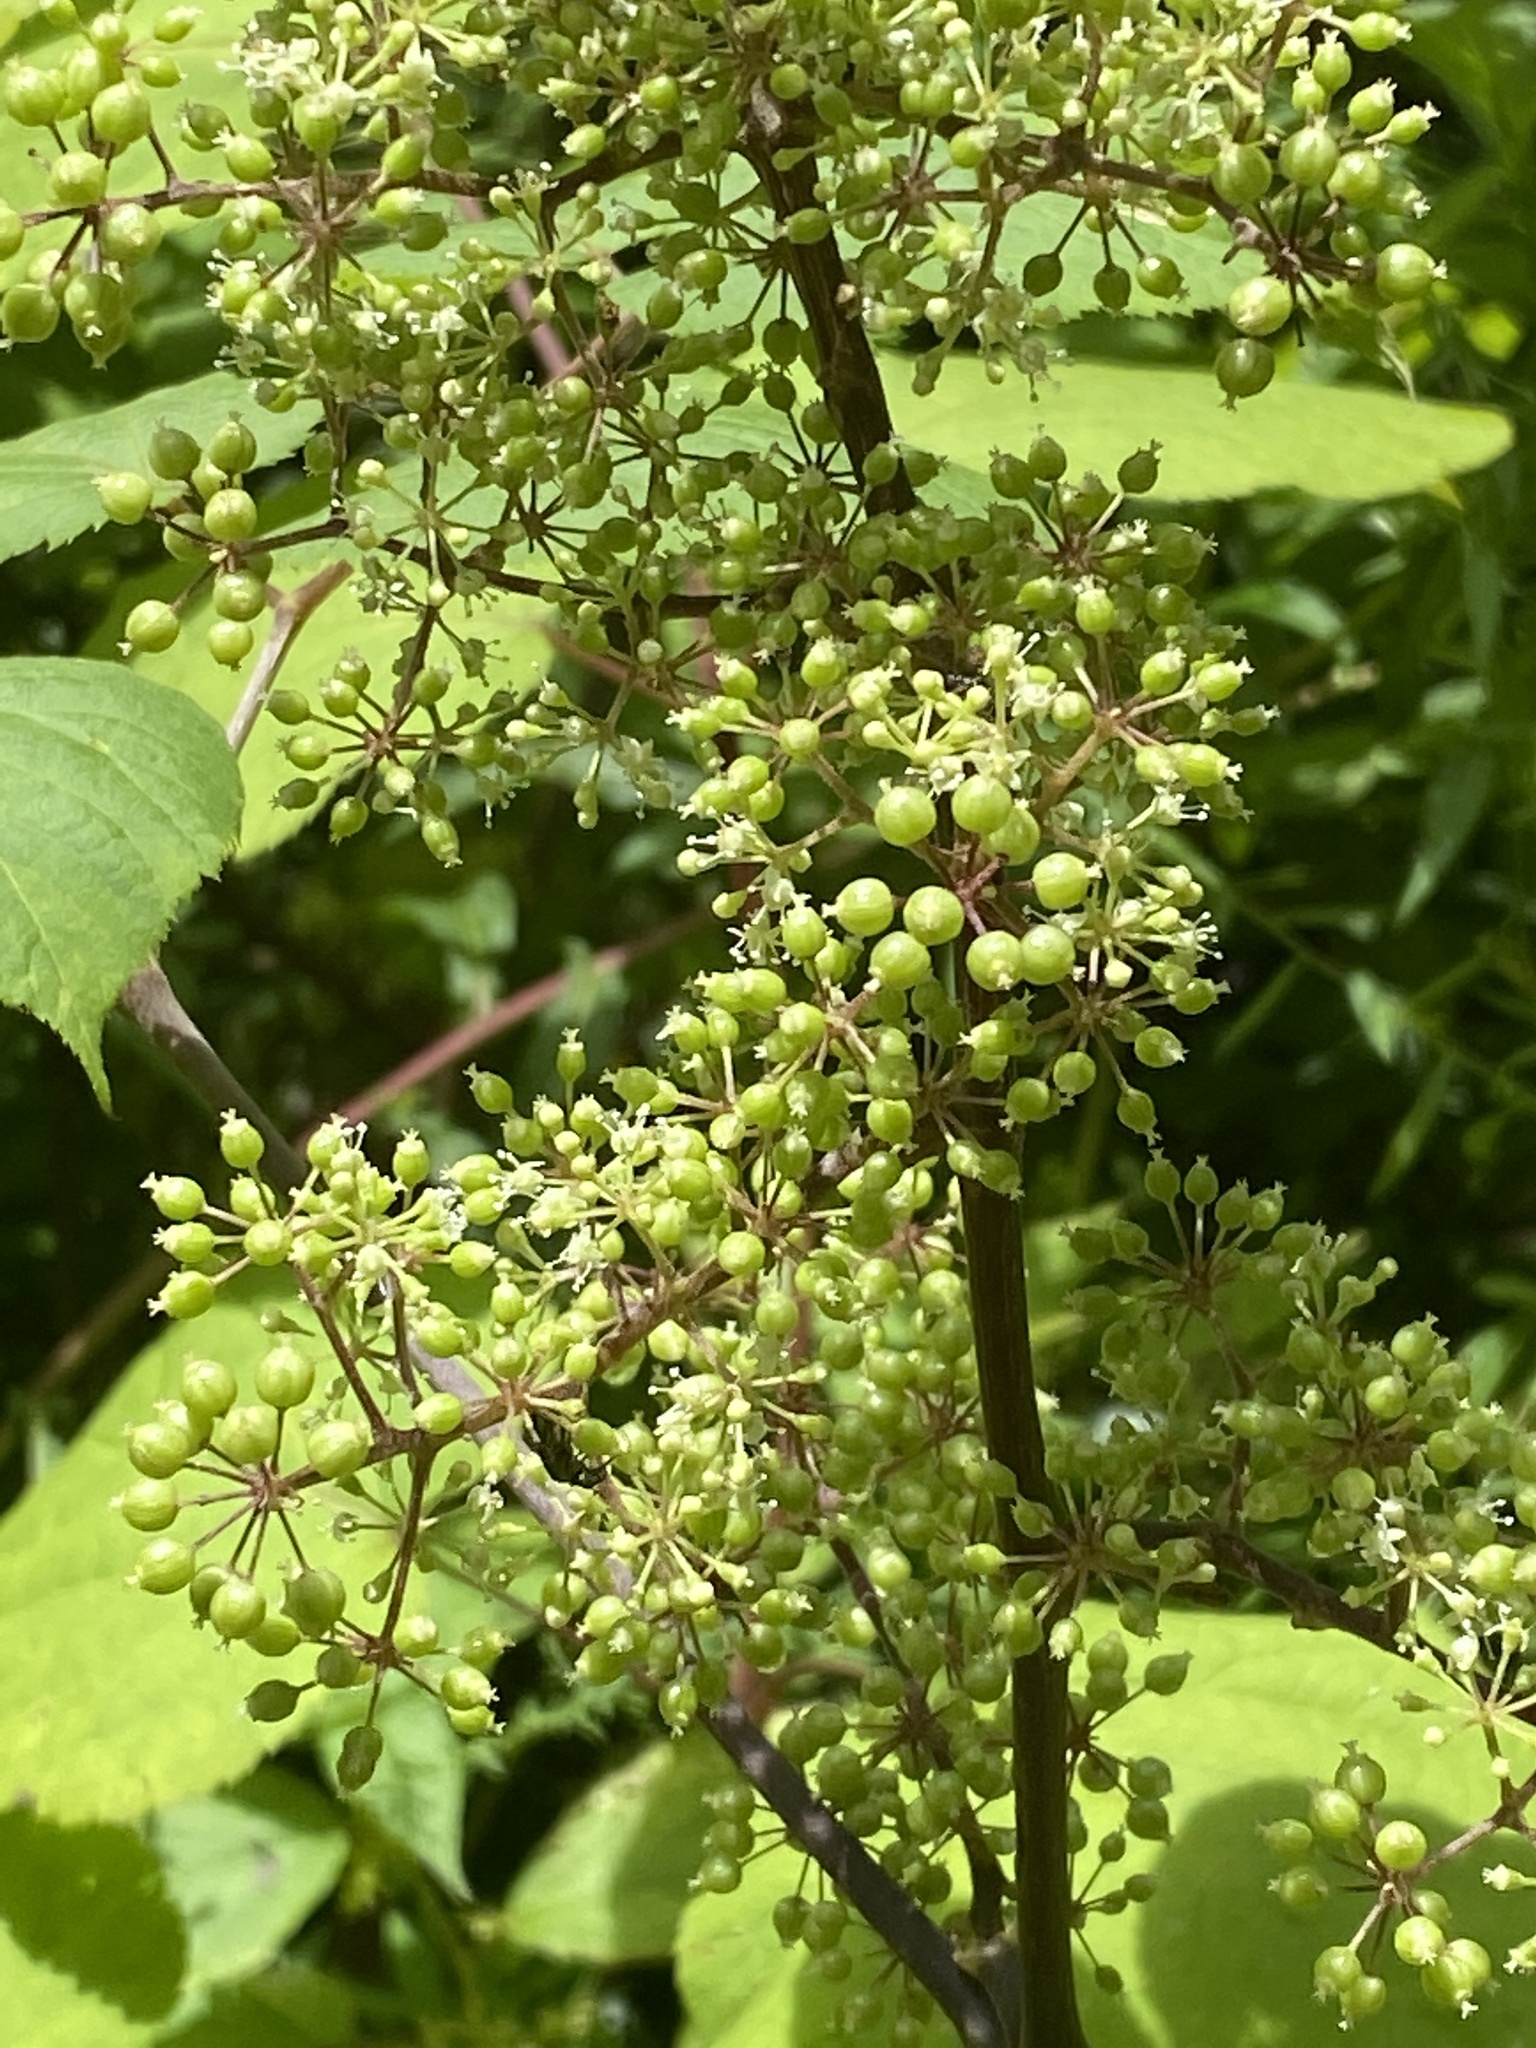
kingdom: Plantae
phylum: Tracheophyta
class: Magnoliopsida
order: Apiales
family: Araliaceae
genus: Aralia
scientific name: Aralia racemosa
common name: American-spikenard
